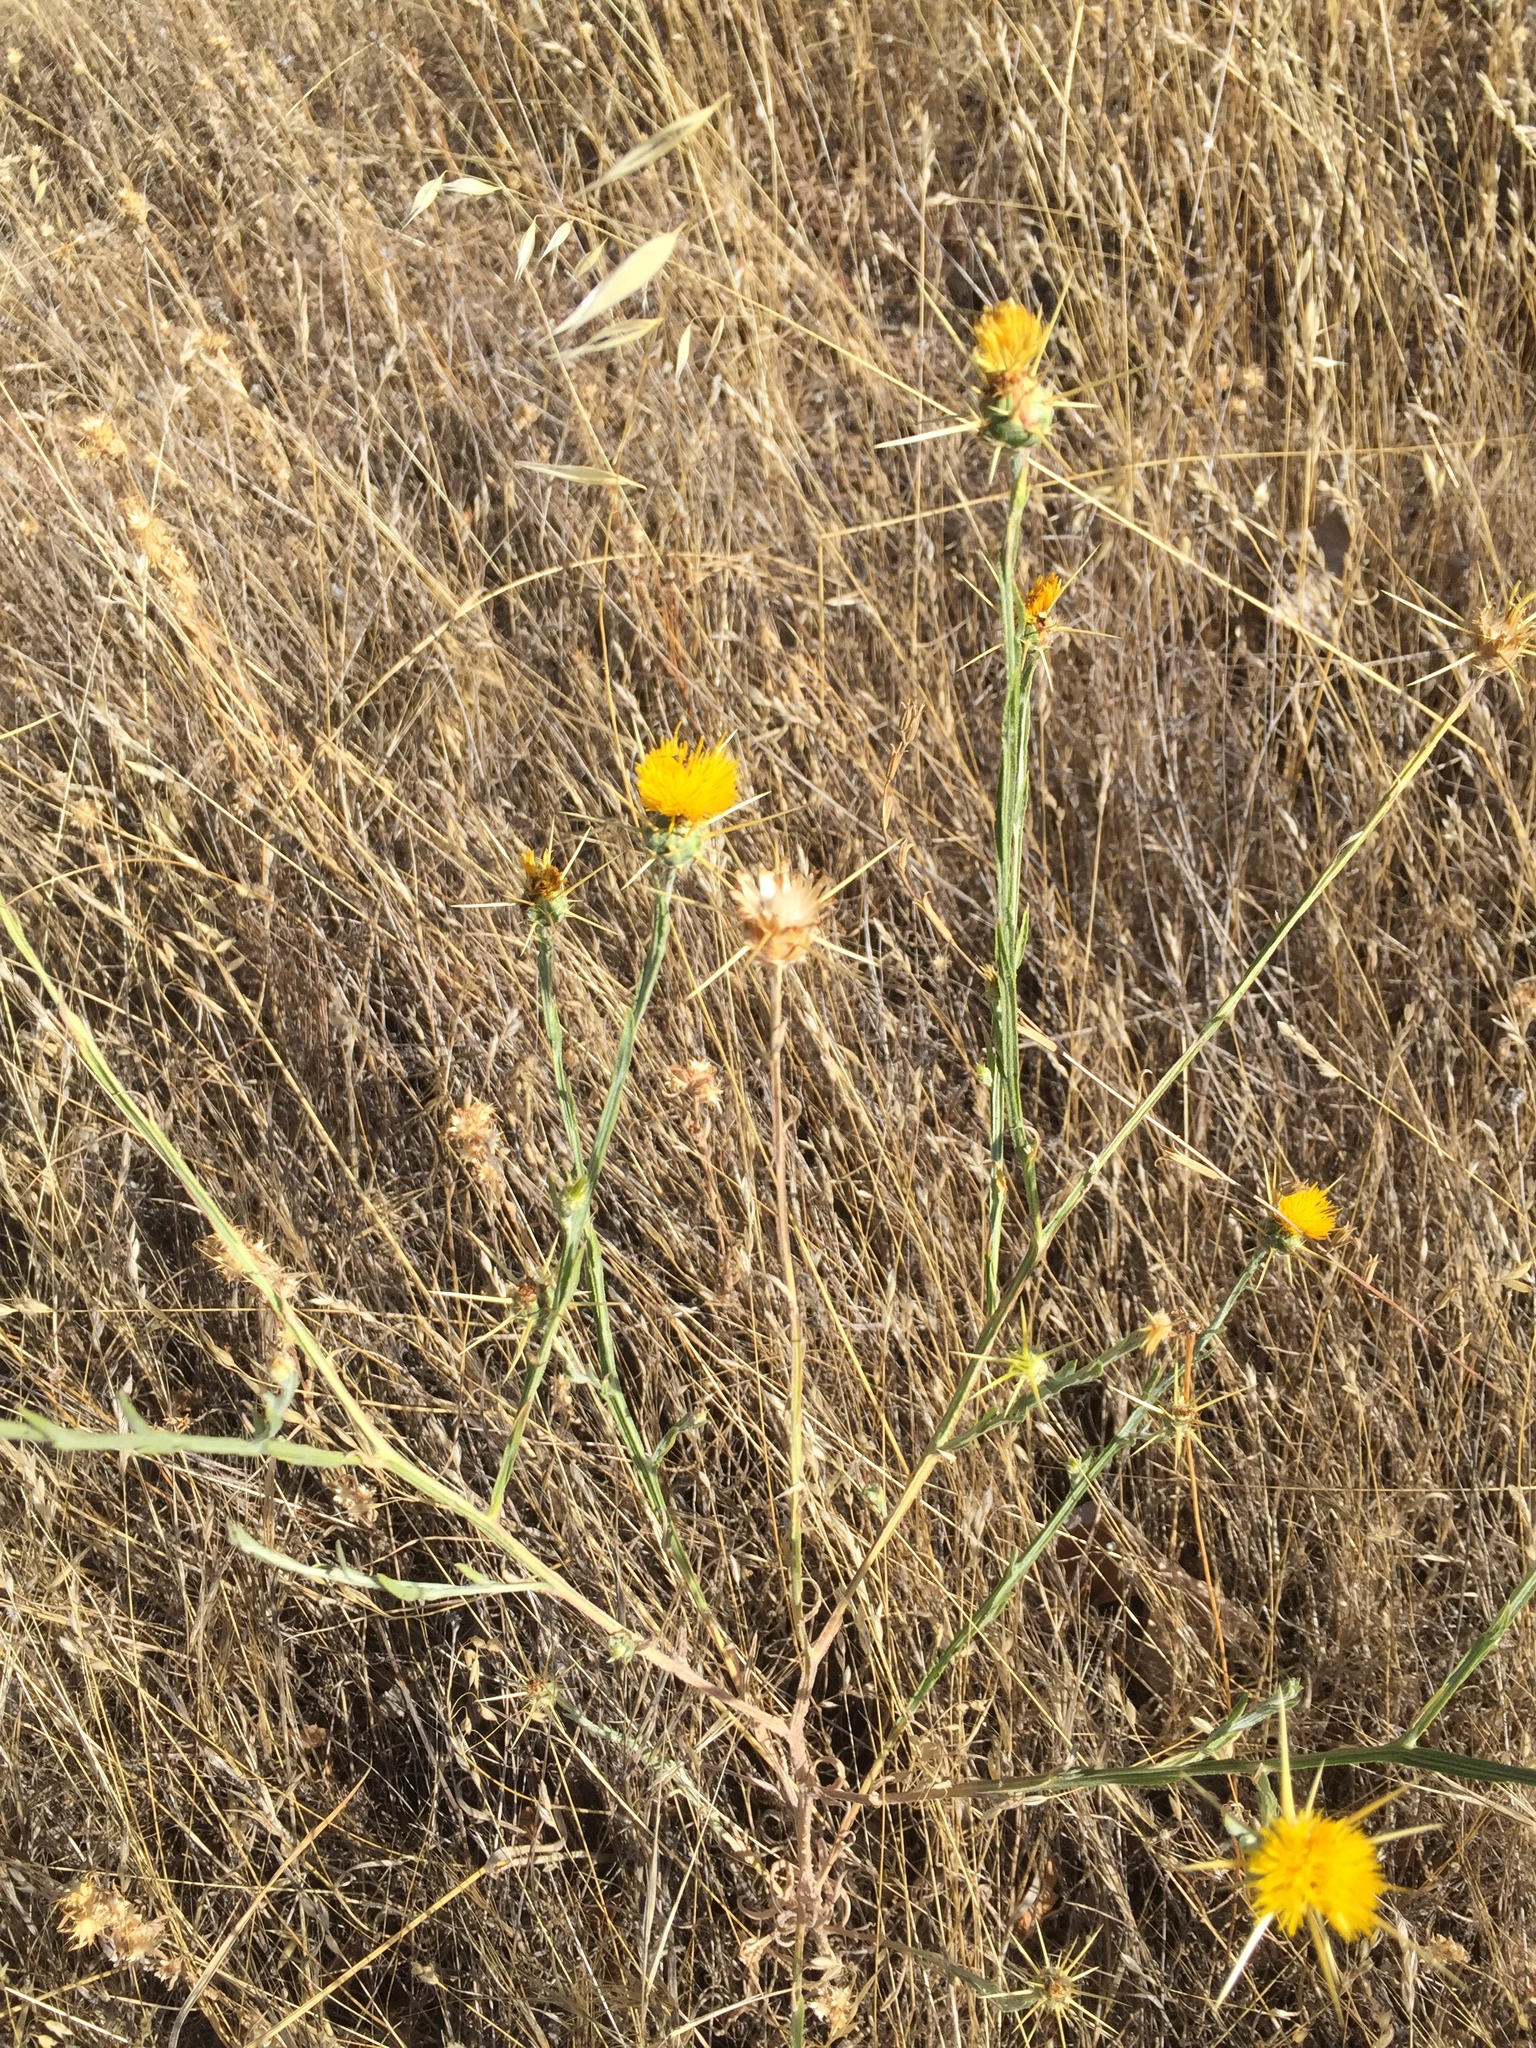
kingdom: Plantae
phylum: Tracheophyta
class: Magnoliopsida
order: Asterales
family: Asteraceae
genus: Centaurea
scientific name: Centaurea solstitialis
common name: Yellow star-thistle
